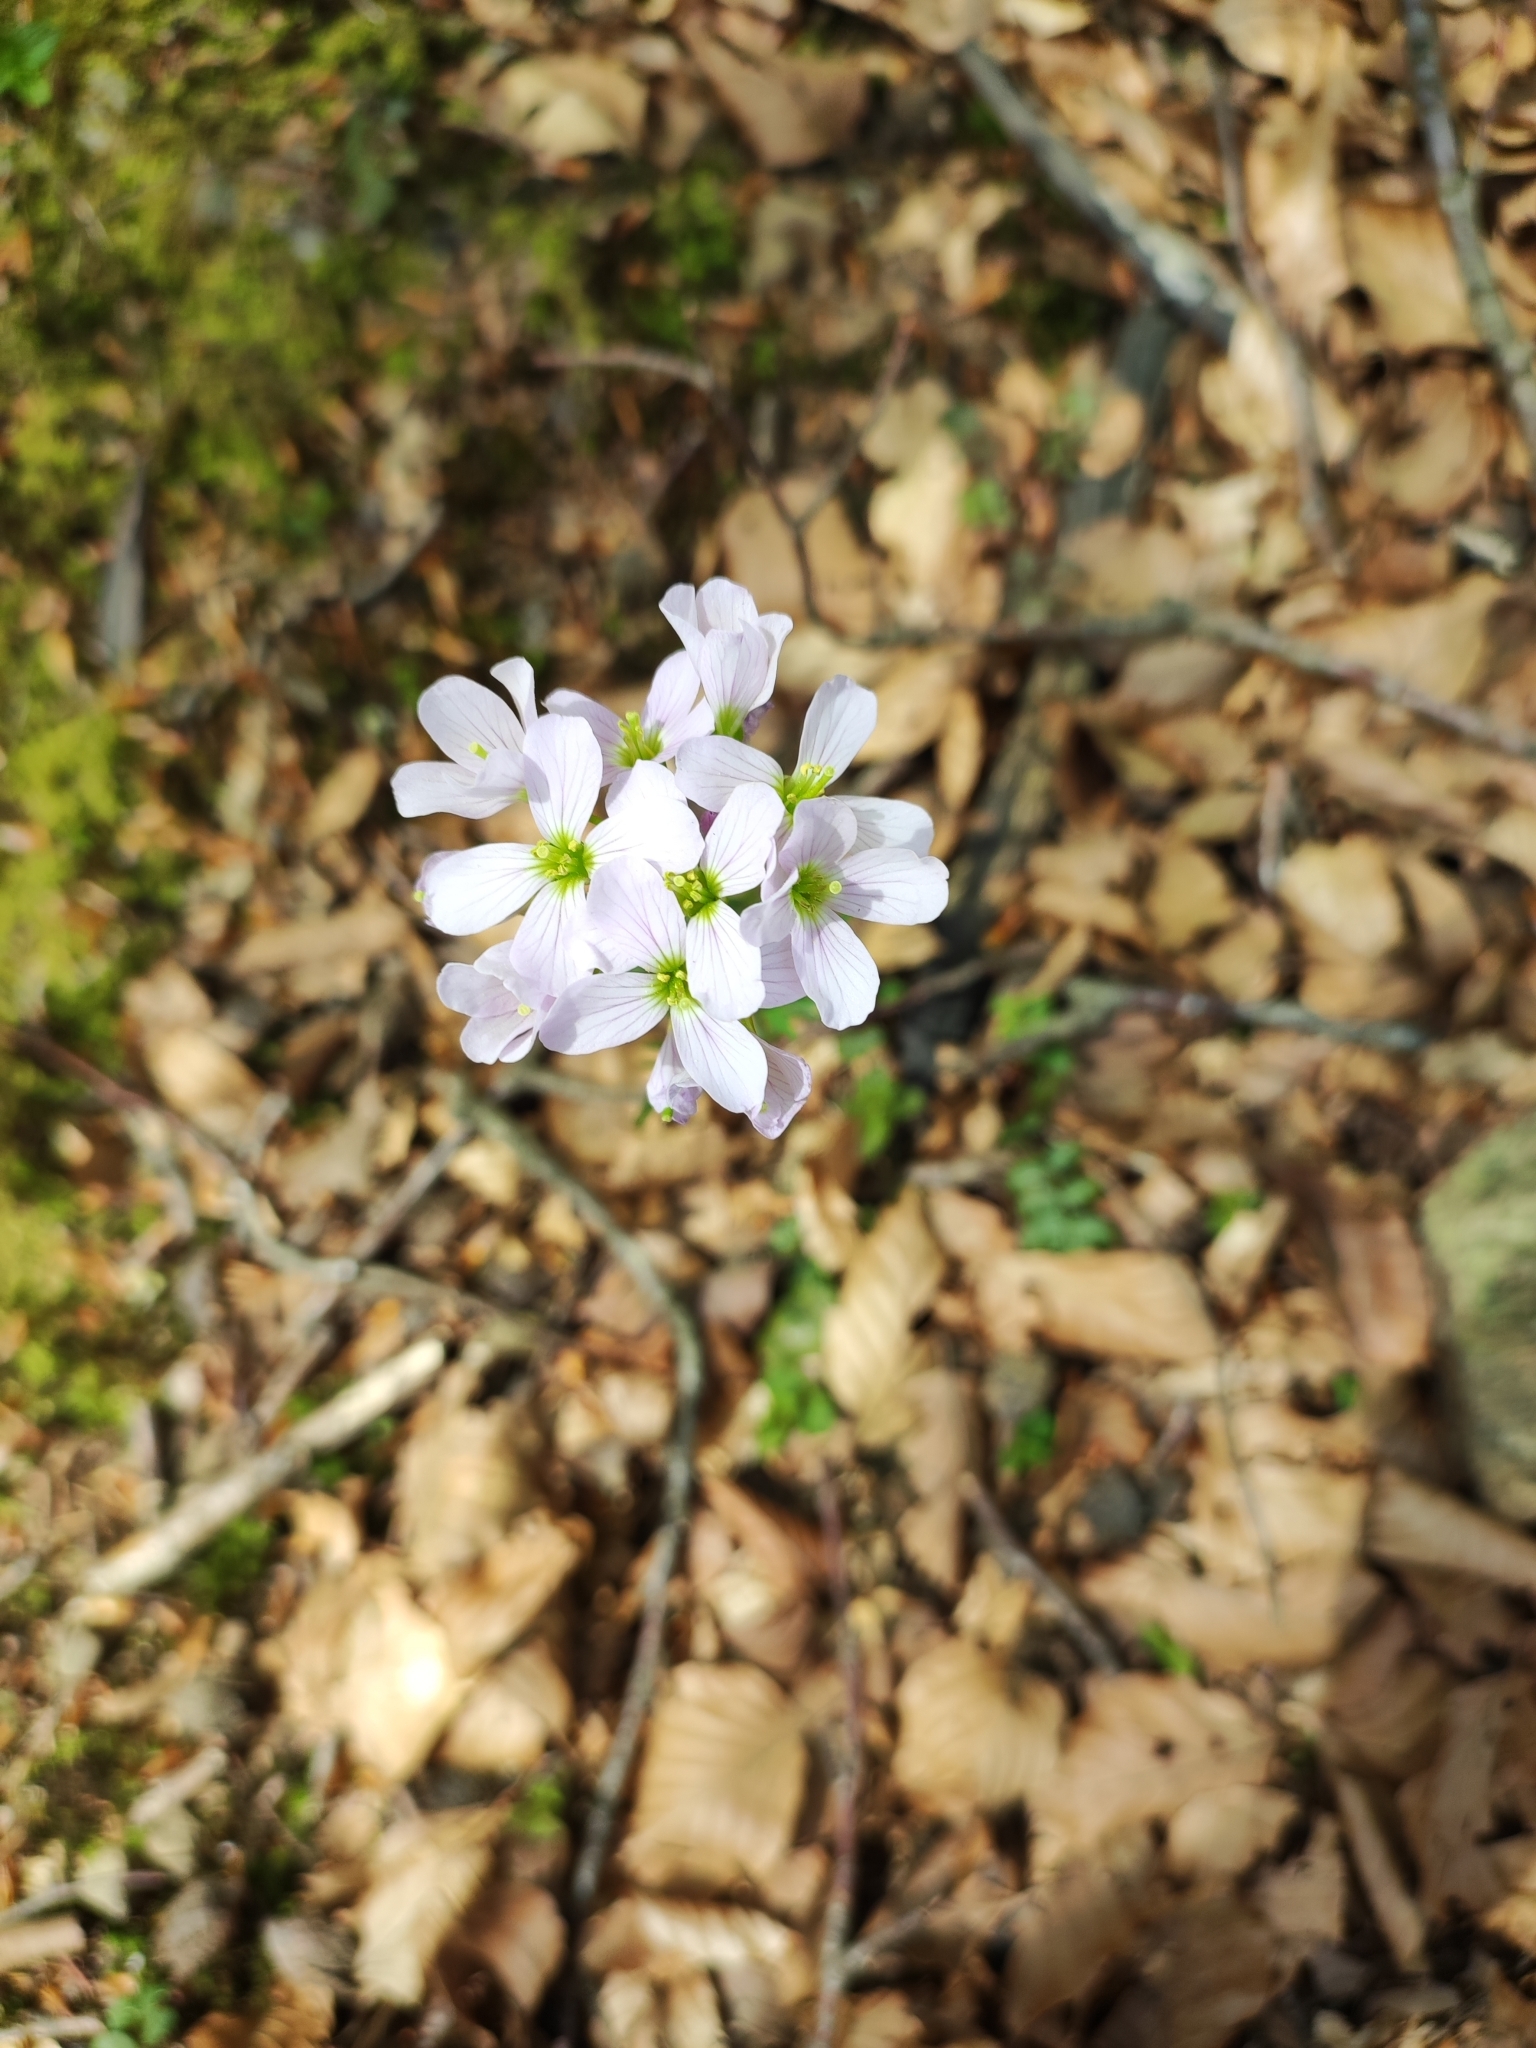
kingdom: Plantae
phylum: Tracheophyta
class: Magnoliopsida
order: Brassicales
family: Brassicaceae
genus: Cardamine
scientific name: Cardamine pratensis
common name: Cuckoo flower
